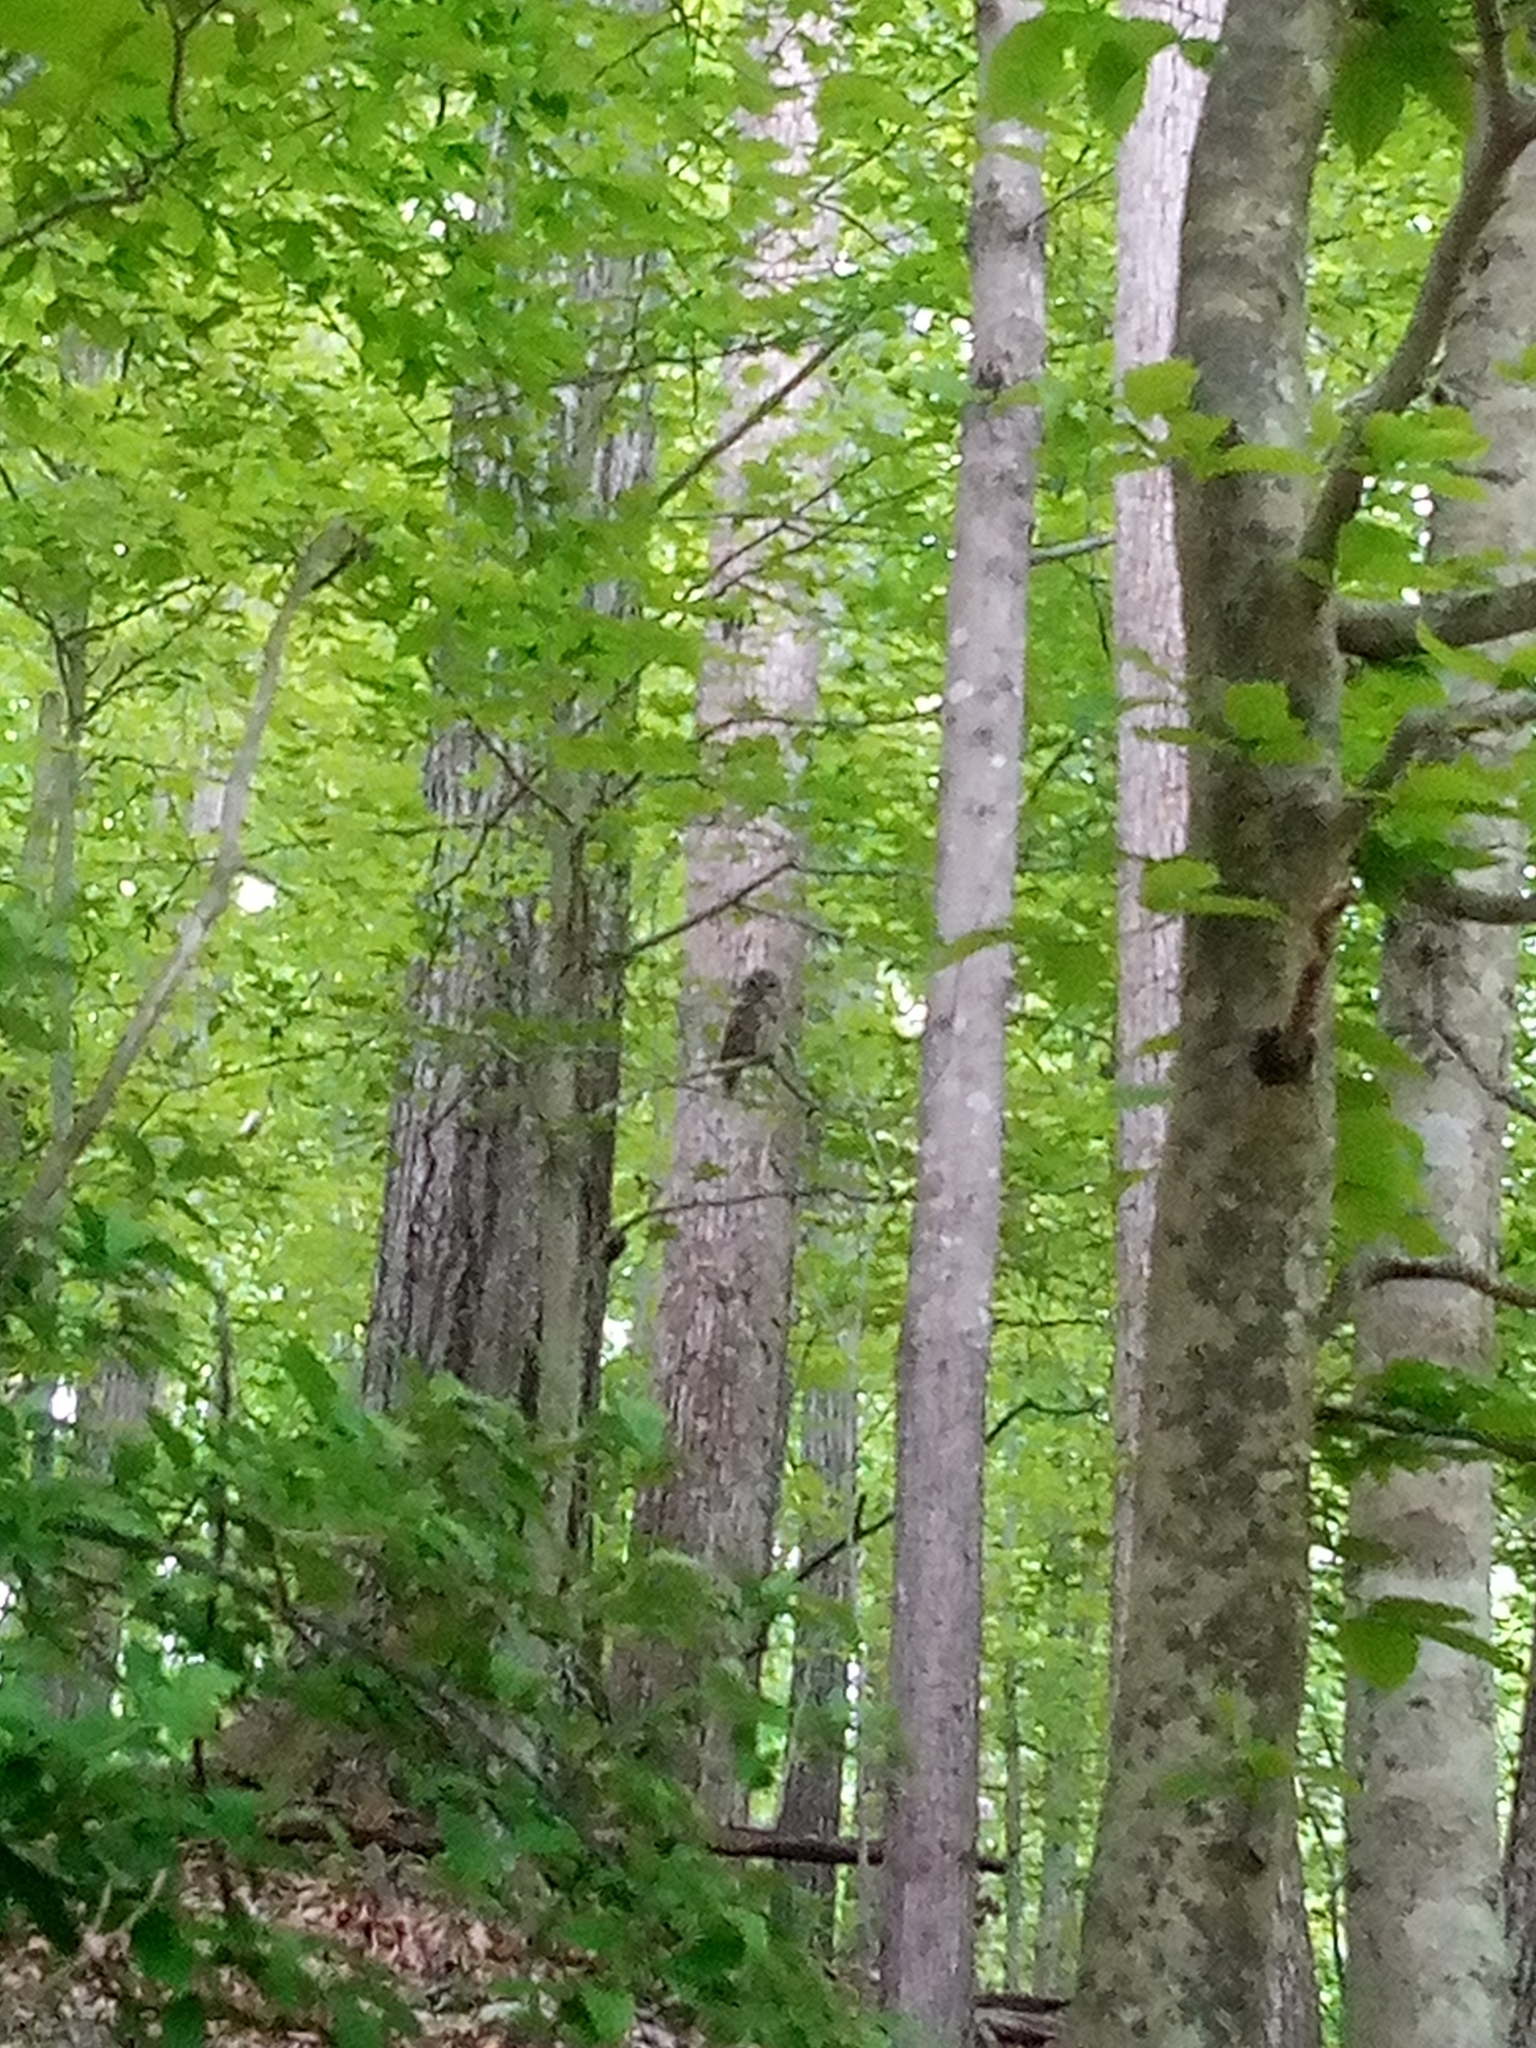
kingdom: Animalia
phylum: Chordata
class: Aves
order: Strigiformes
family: Strigidae
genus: Strix
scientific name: Strix varia
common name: Barred owl
